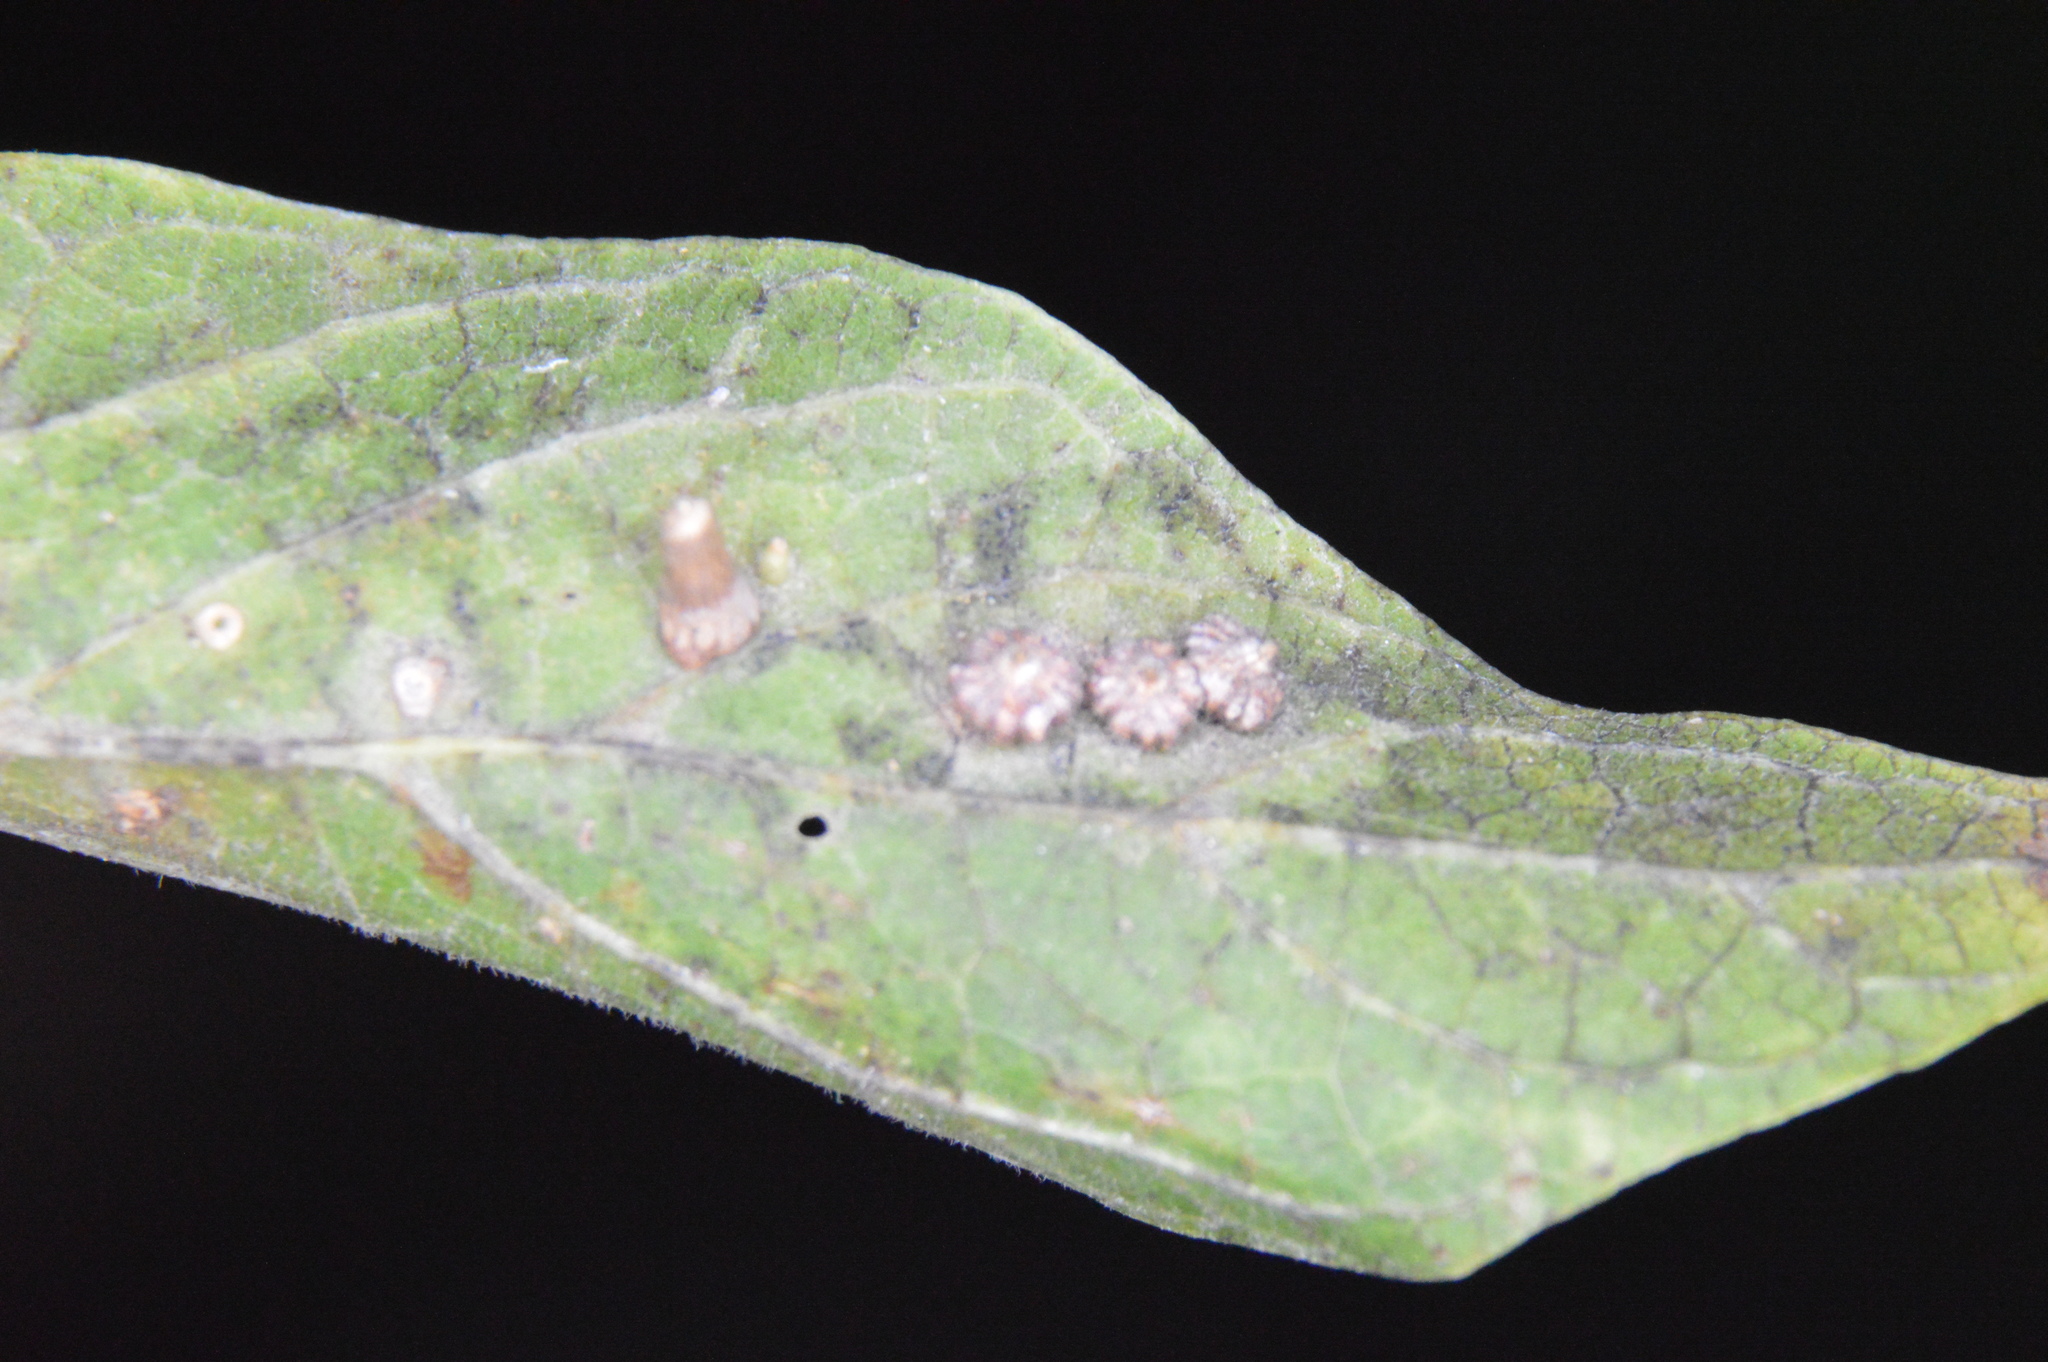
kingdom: Animalia
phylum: Arthropoda
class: Insecta
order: Diptera
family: Cecidomyiidae
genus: Celticecis
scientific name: Celticecis capsularis
